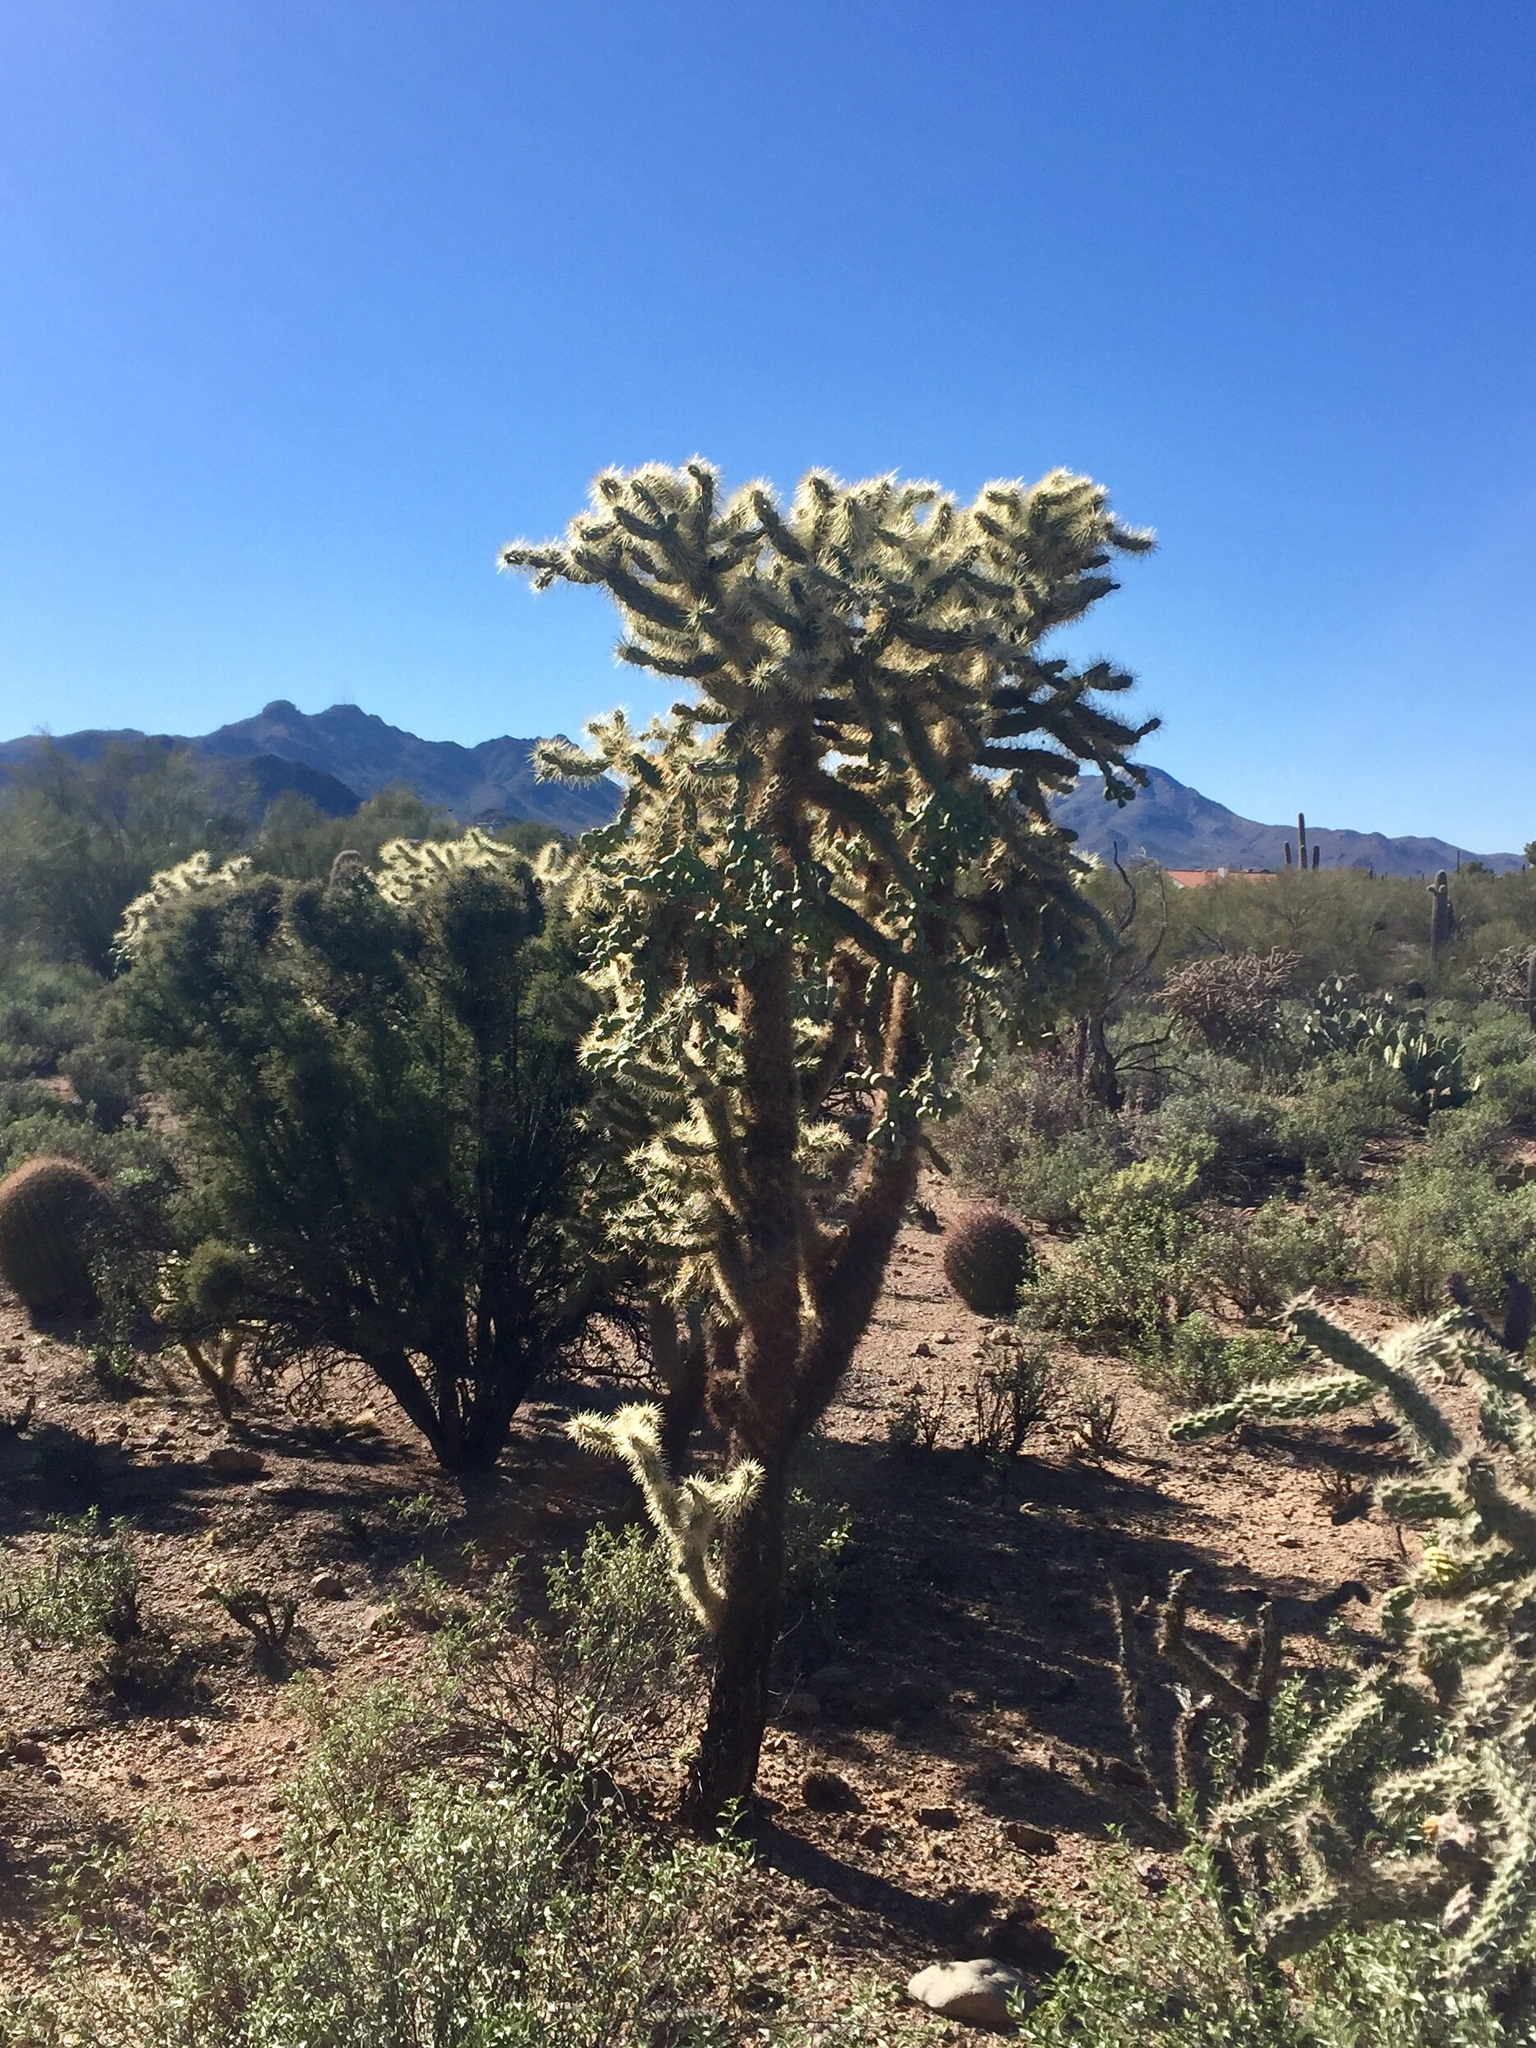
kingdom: Plantae
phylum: Tracheophyta
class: Magnoliopsida
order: Caryophyllales
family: Cactaceae
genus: Cylindropuntia
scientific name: Cylindropuntia fulgida
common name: Jumping cholla
